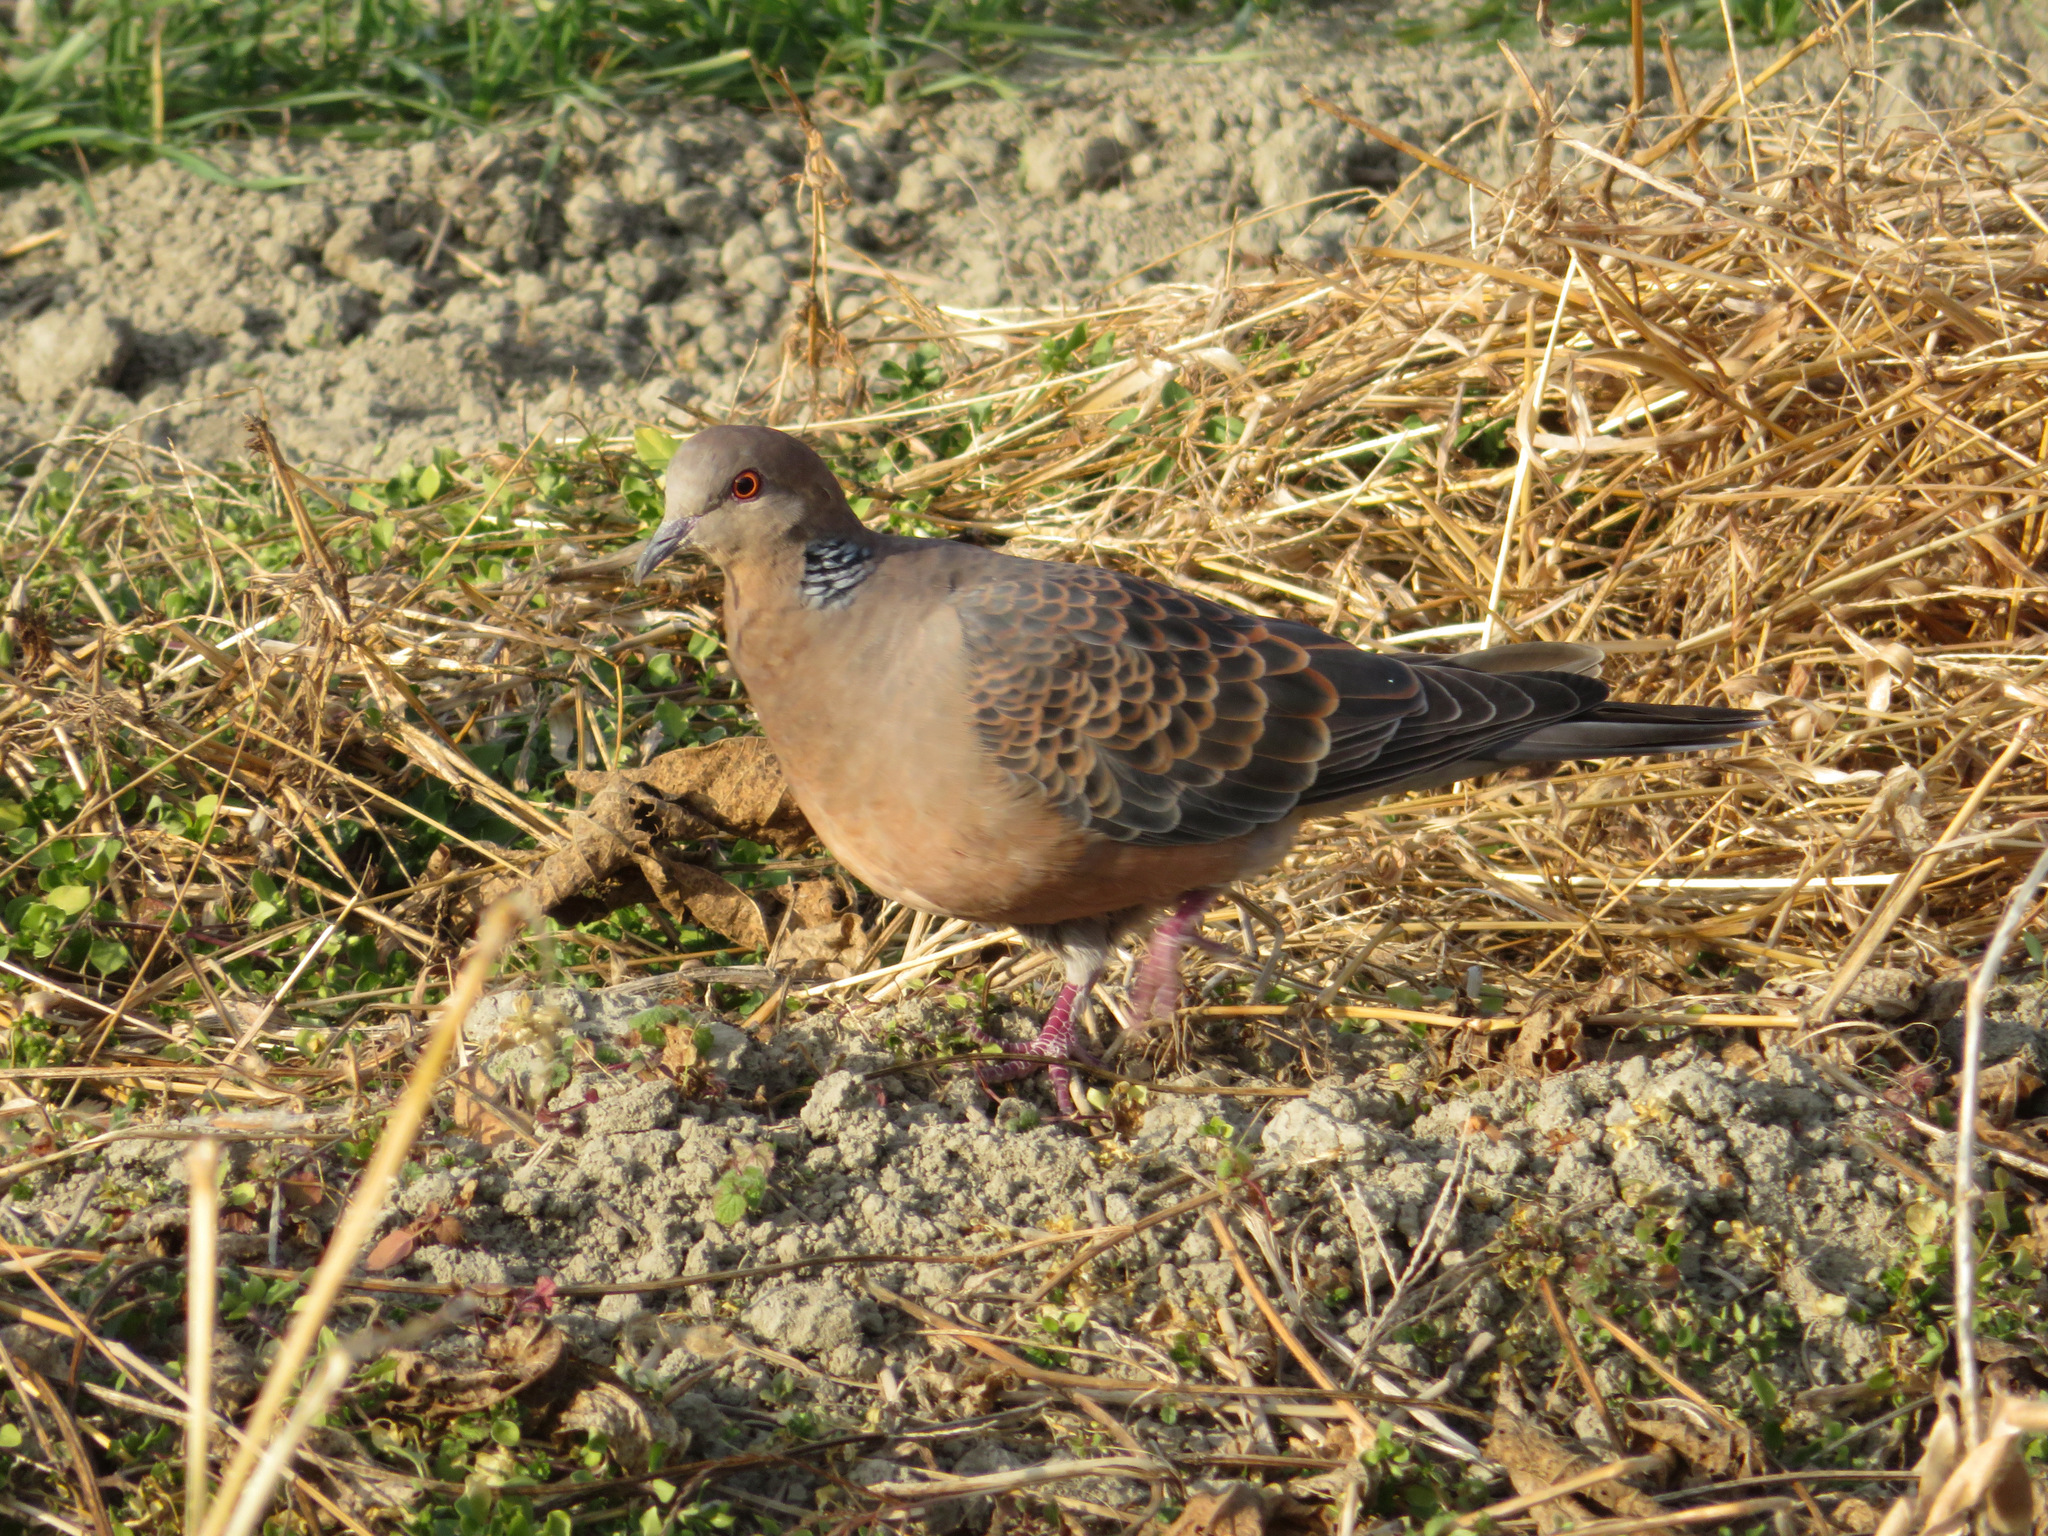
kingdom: Animalia
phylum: Chordata
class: Aves
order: Columbiformes
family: Columbidae
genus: Streptopelia
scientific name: Streptopelia orientalis
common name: Oriental turtle dove
